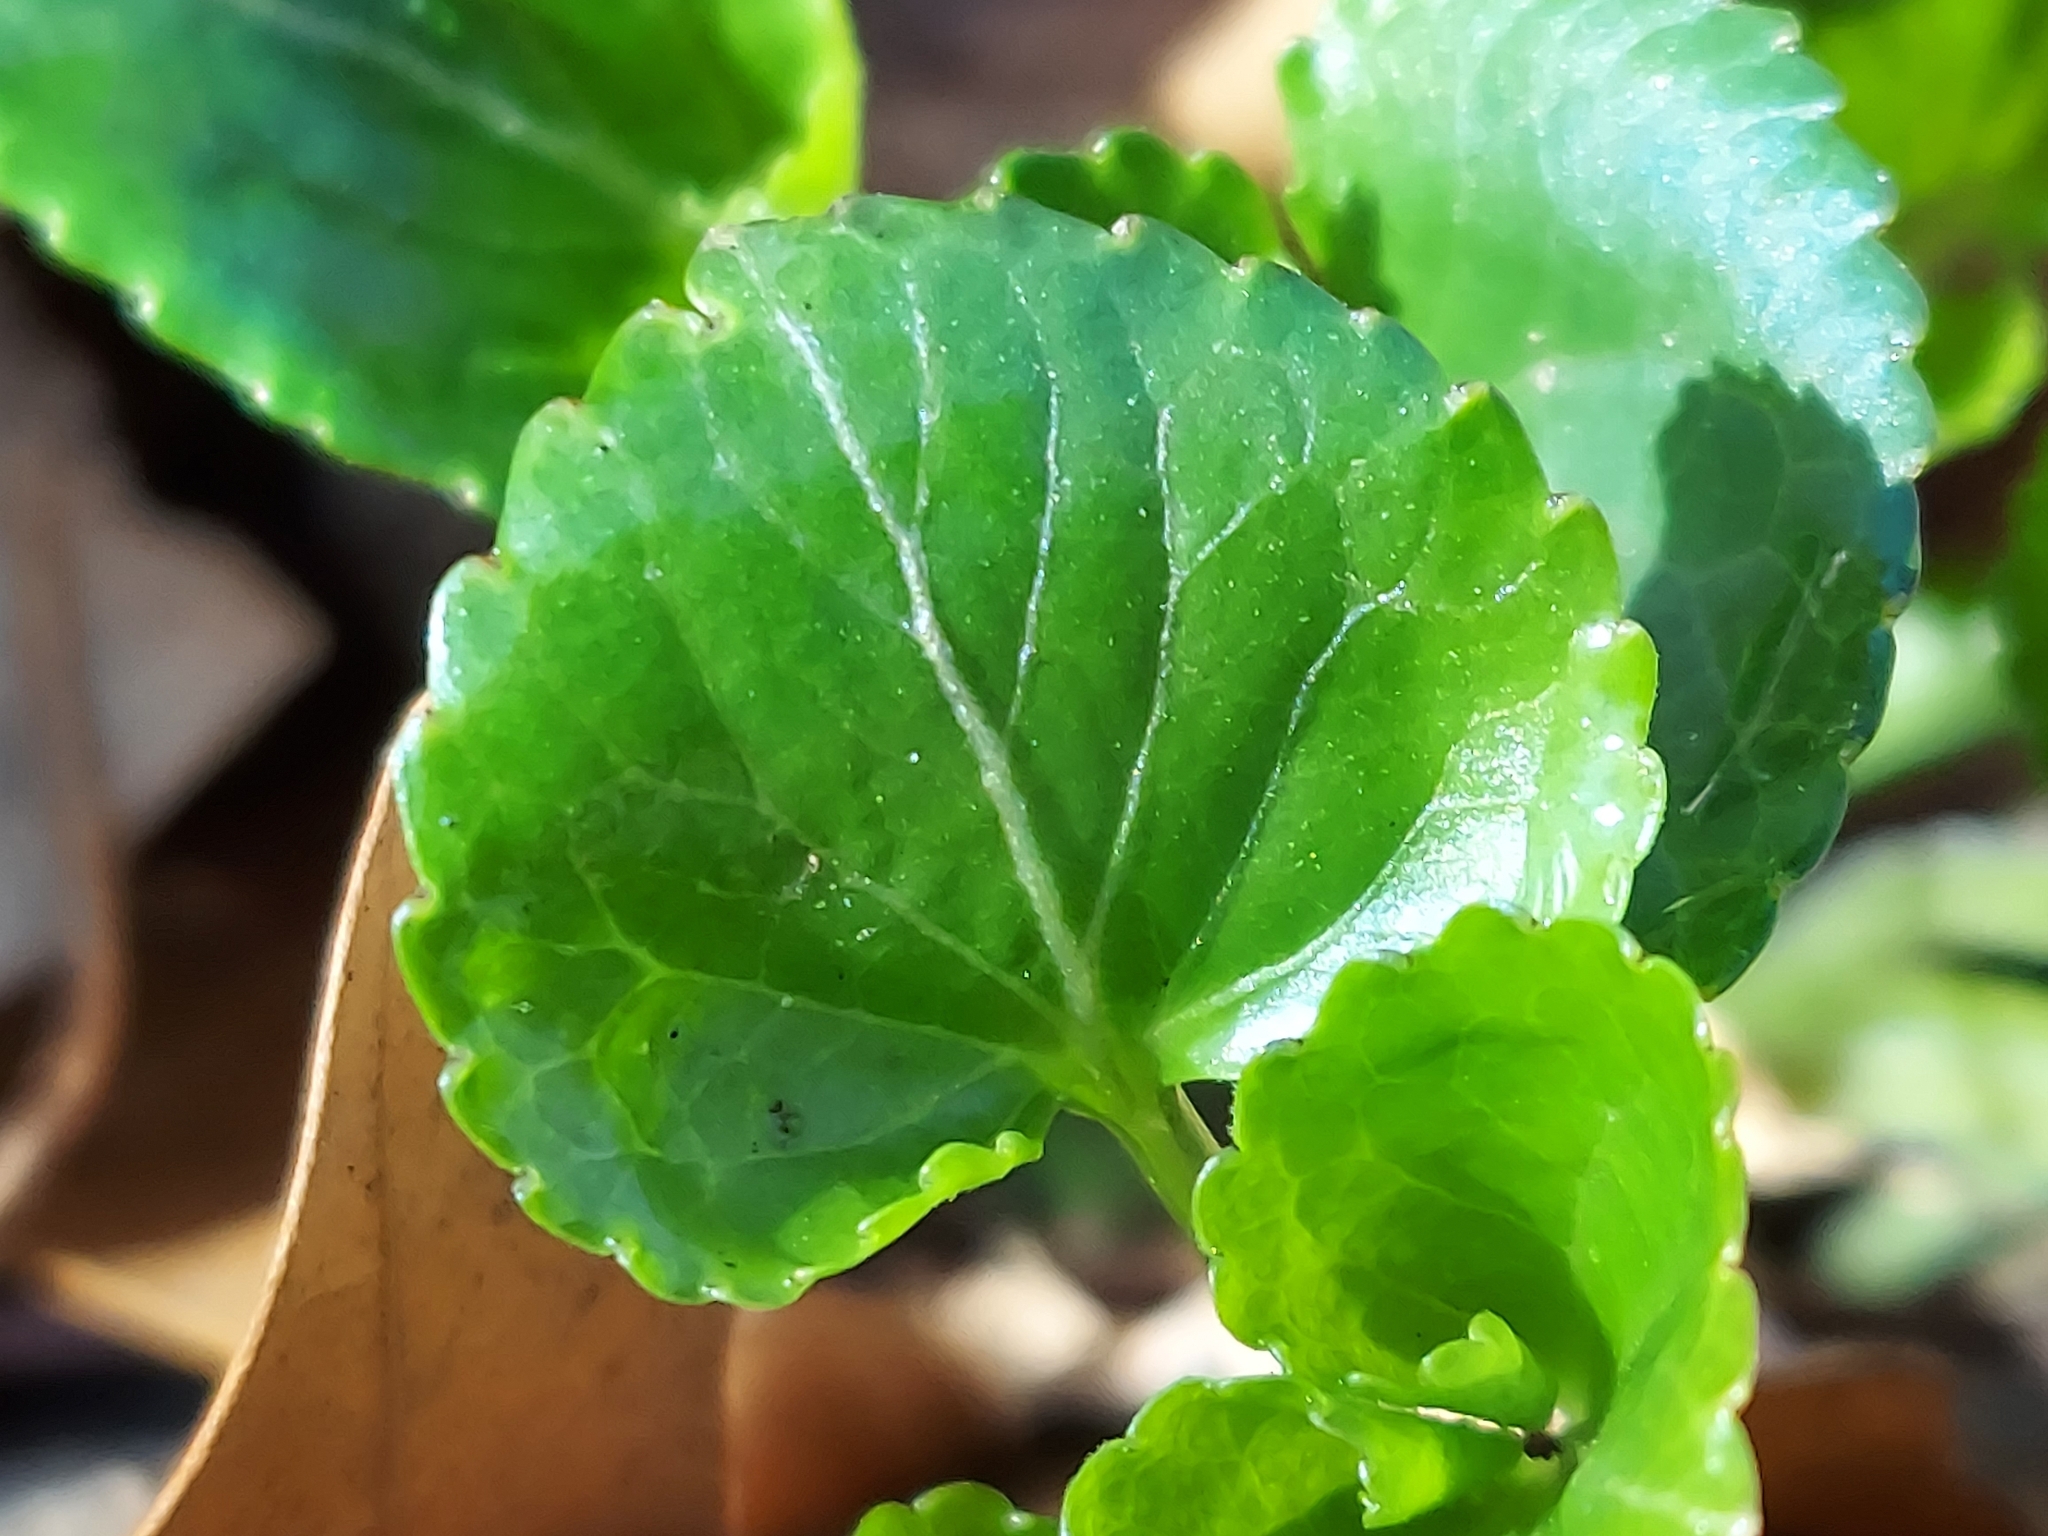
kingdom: Plantae
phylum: Tracheophyta
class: Magnoliopsida
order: Malpighiales
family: Violaceae
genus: Viola
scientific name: Viola sororia
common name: Dooryard violet
